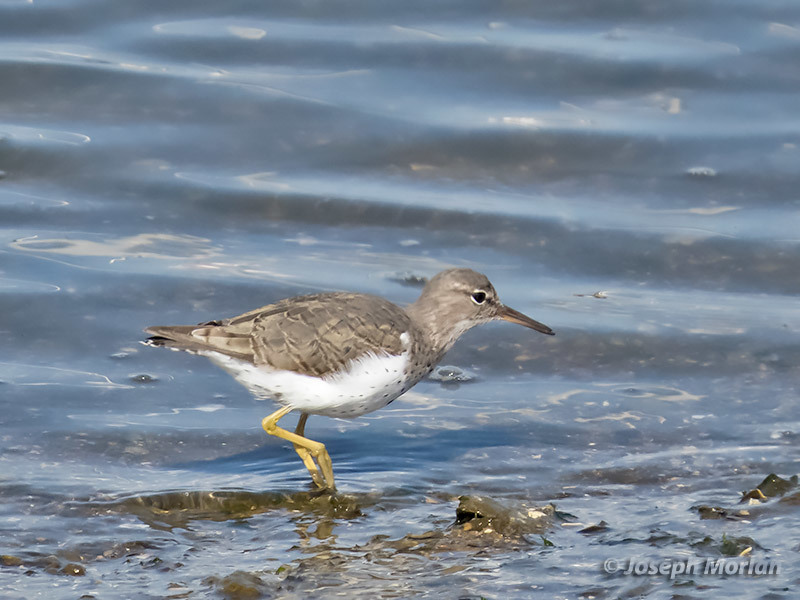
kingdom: Animalia
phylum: Chordata
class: Aves
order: Charadriiformes
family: Scolopacidae
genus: Actitis
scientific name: Actitis macularius
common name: Spotted sandpiper
